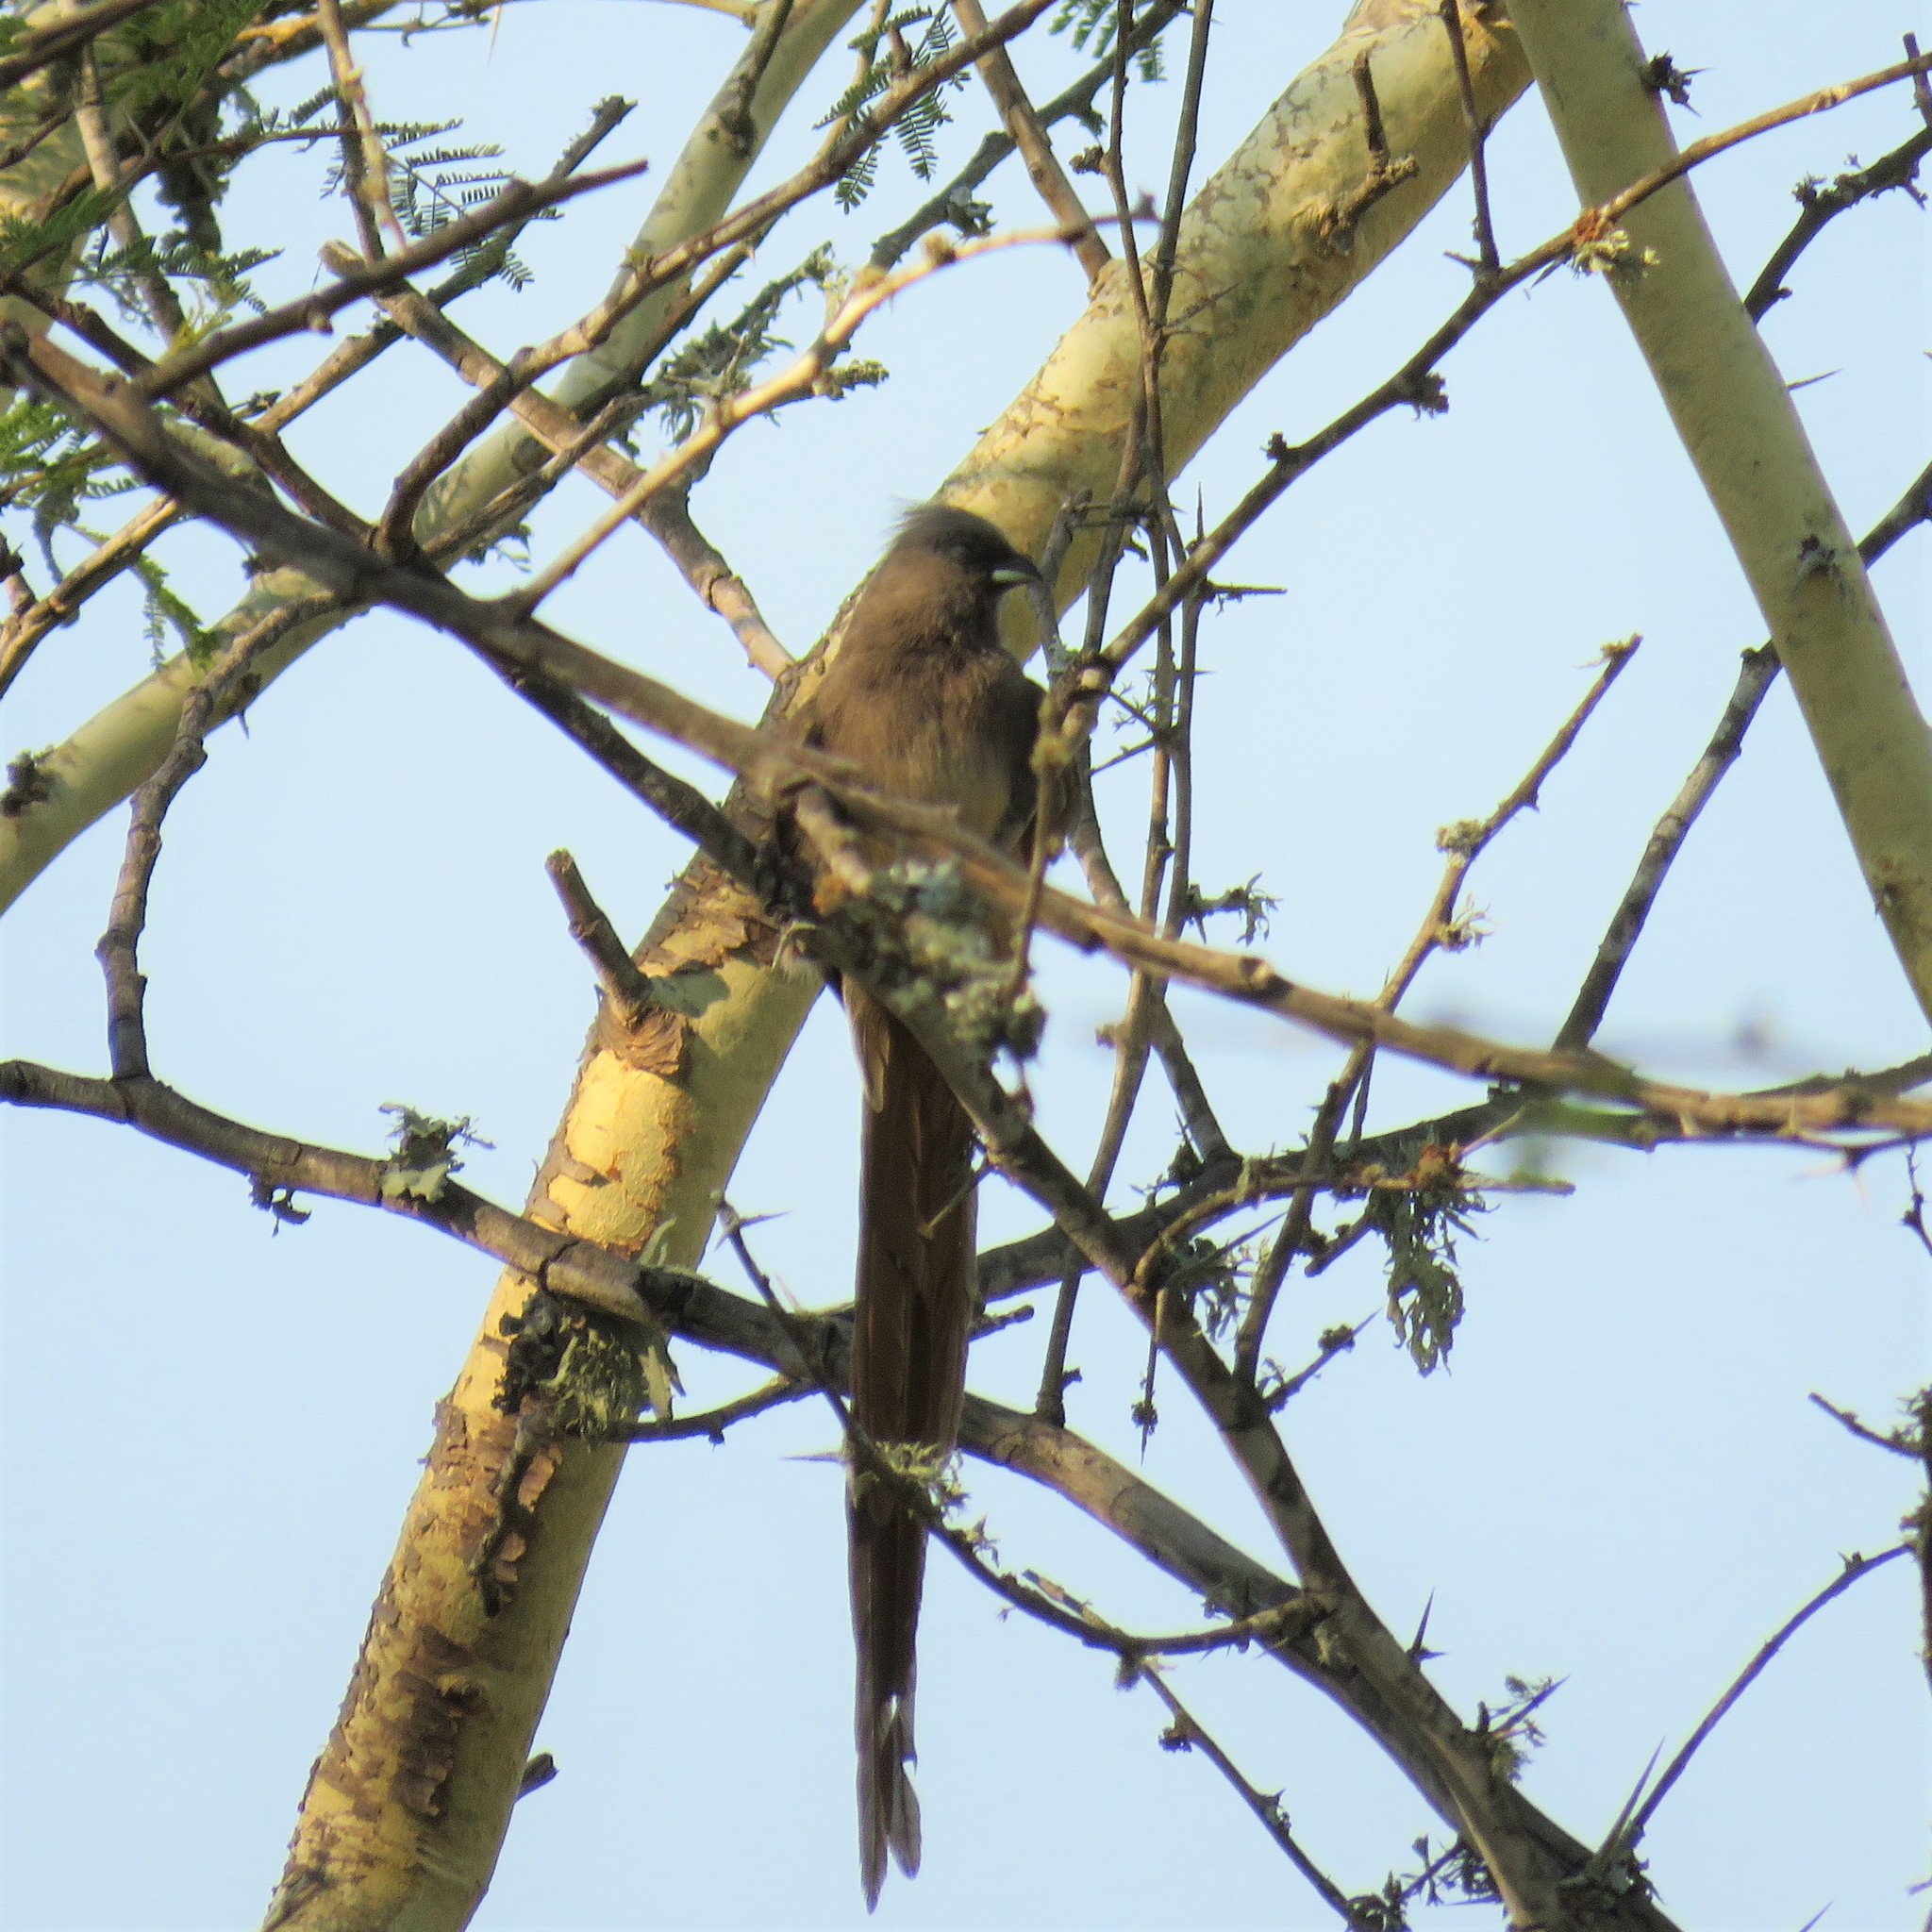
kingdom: Animalia
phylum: Chordata
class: Aves
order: Coliiformes
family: Coliidae
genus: Colius
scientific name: Colius striatus
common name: Speckled mousebird
